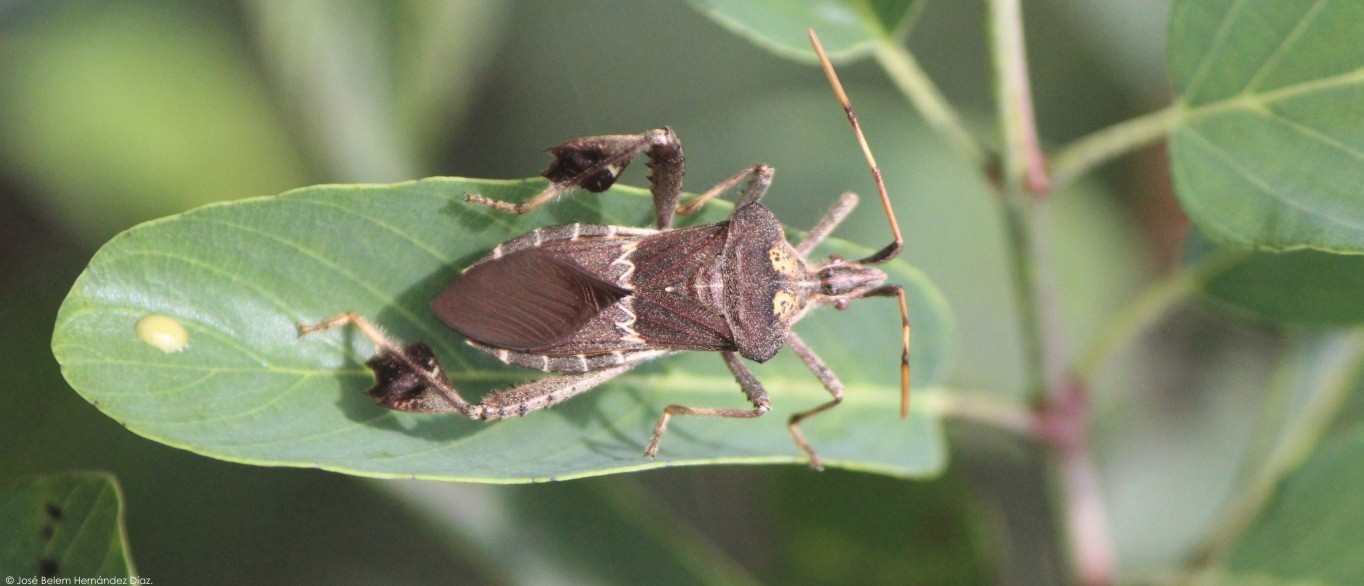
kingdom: Animalia
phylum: Arthropoda
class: Insecta
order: Hemiptera
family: Coreidae
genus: Leptoglossus
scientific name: Leptoglossus zonatus
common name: Large-legged bug
